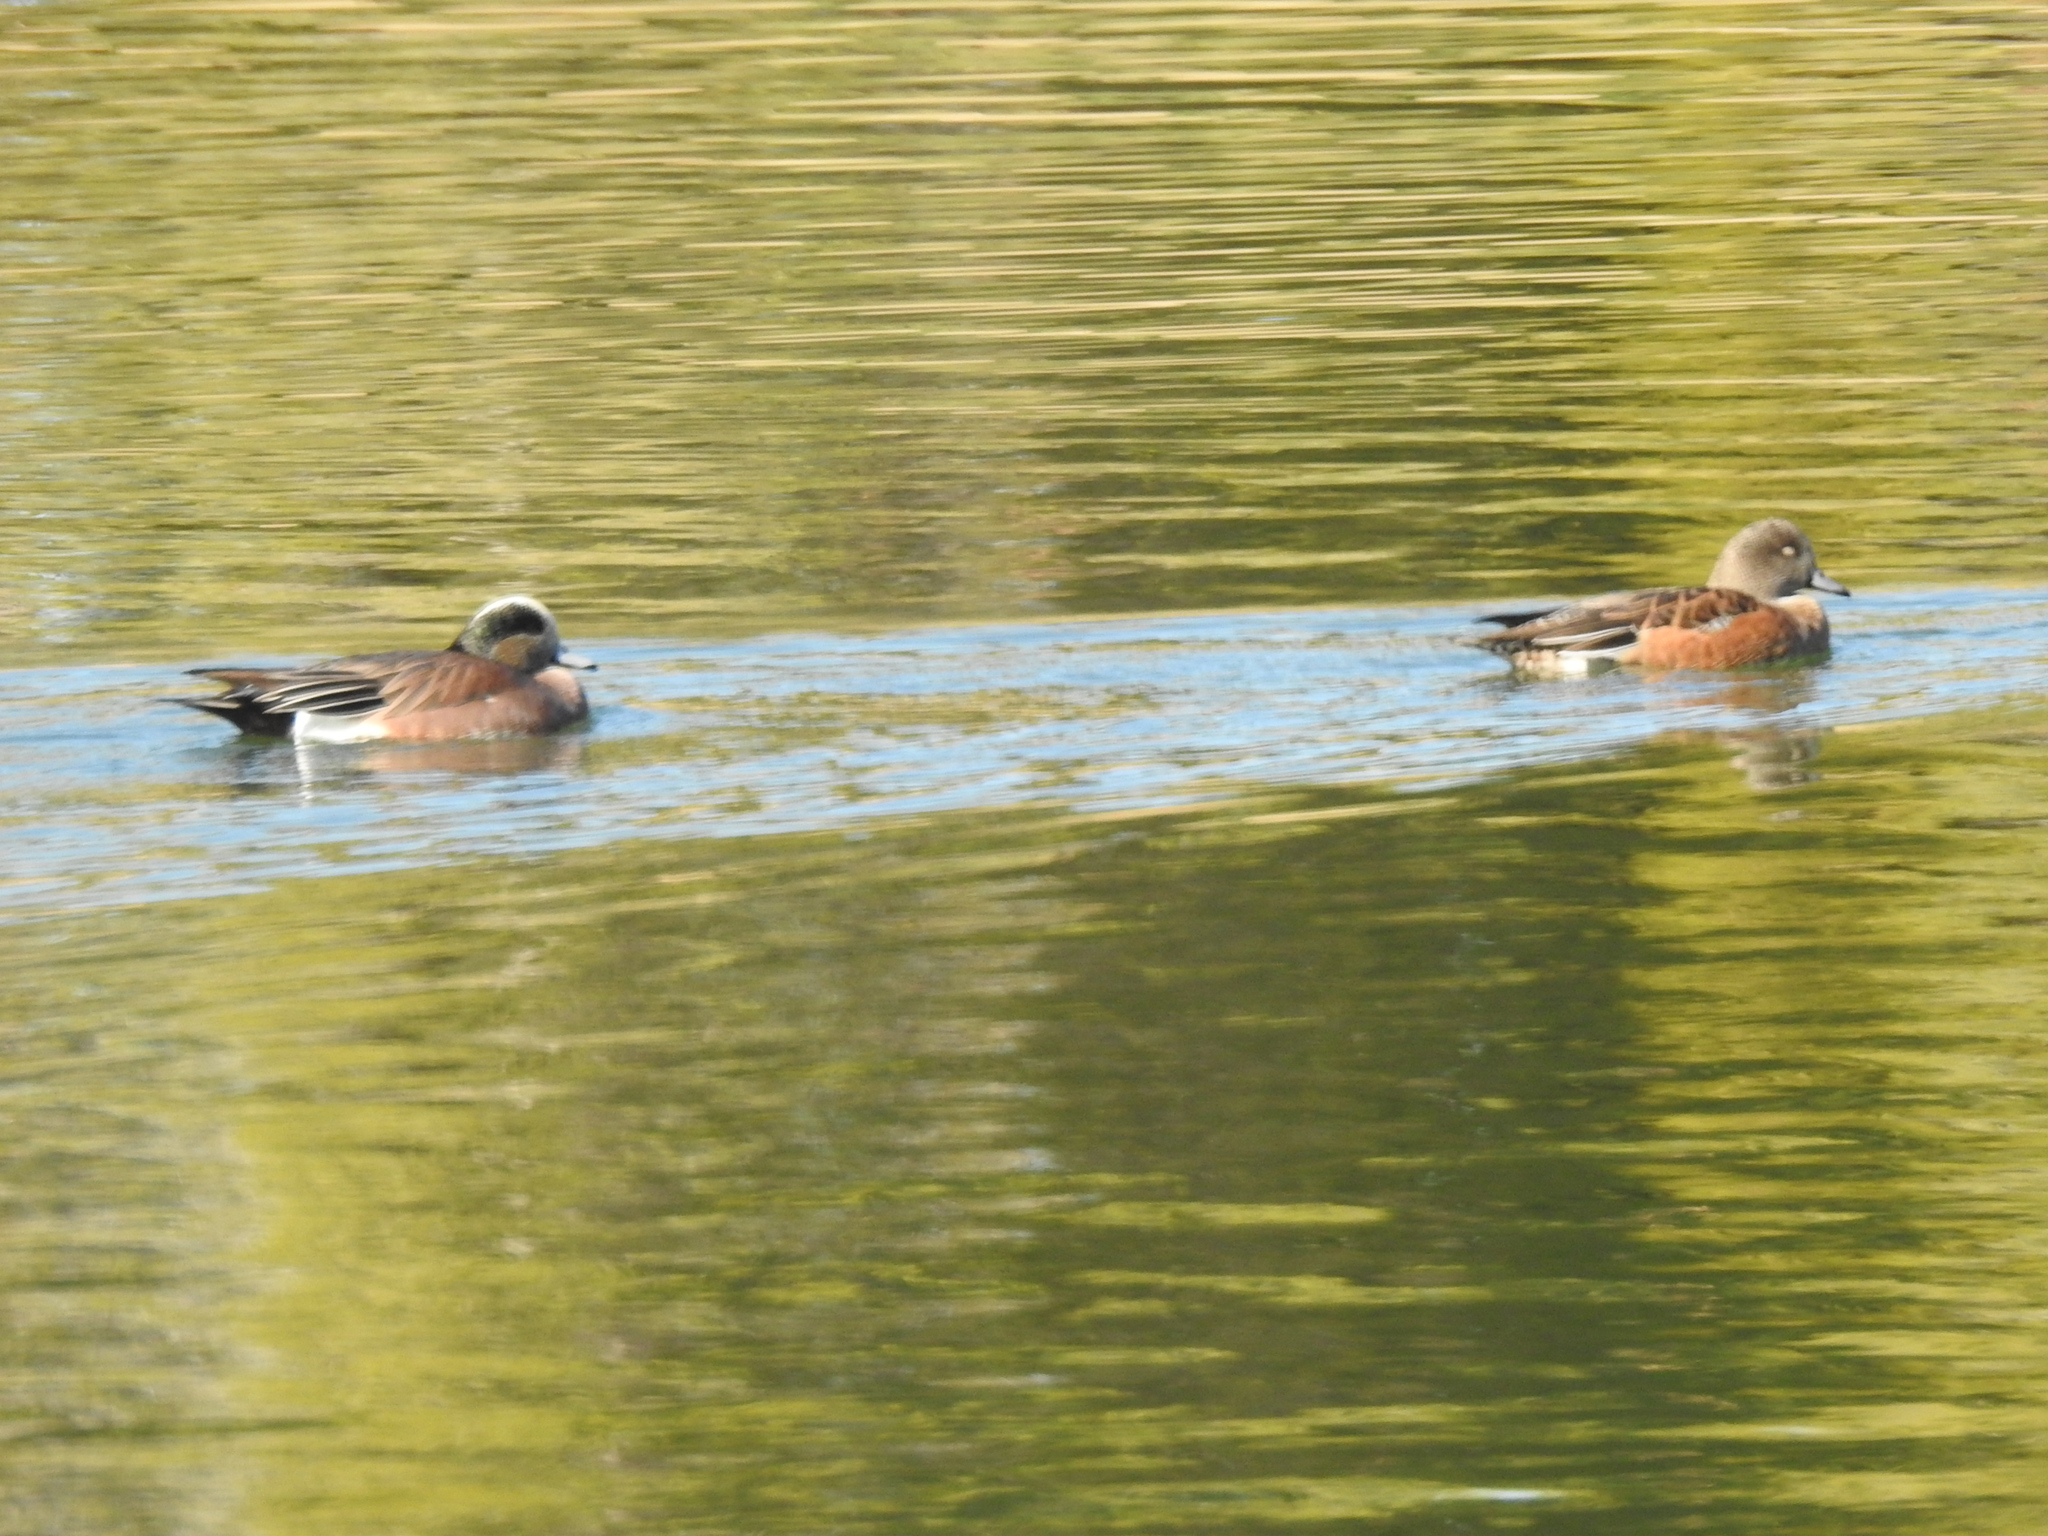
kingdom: Animalia
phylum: Chordata
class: Aves
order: Anseriformes
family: Anatidae
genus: Mareca
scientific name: Mareca americana
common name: American wigeon
